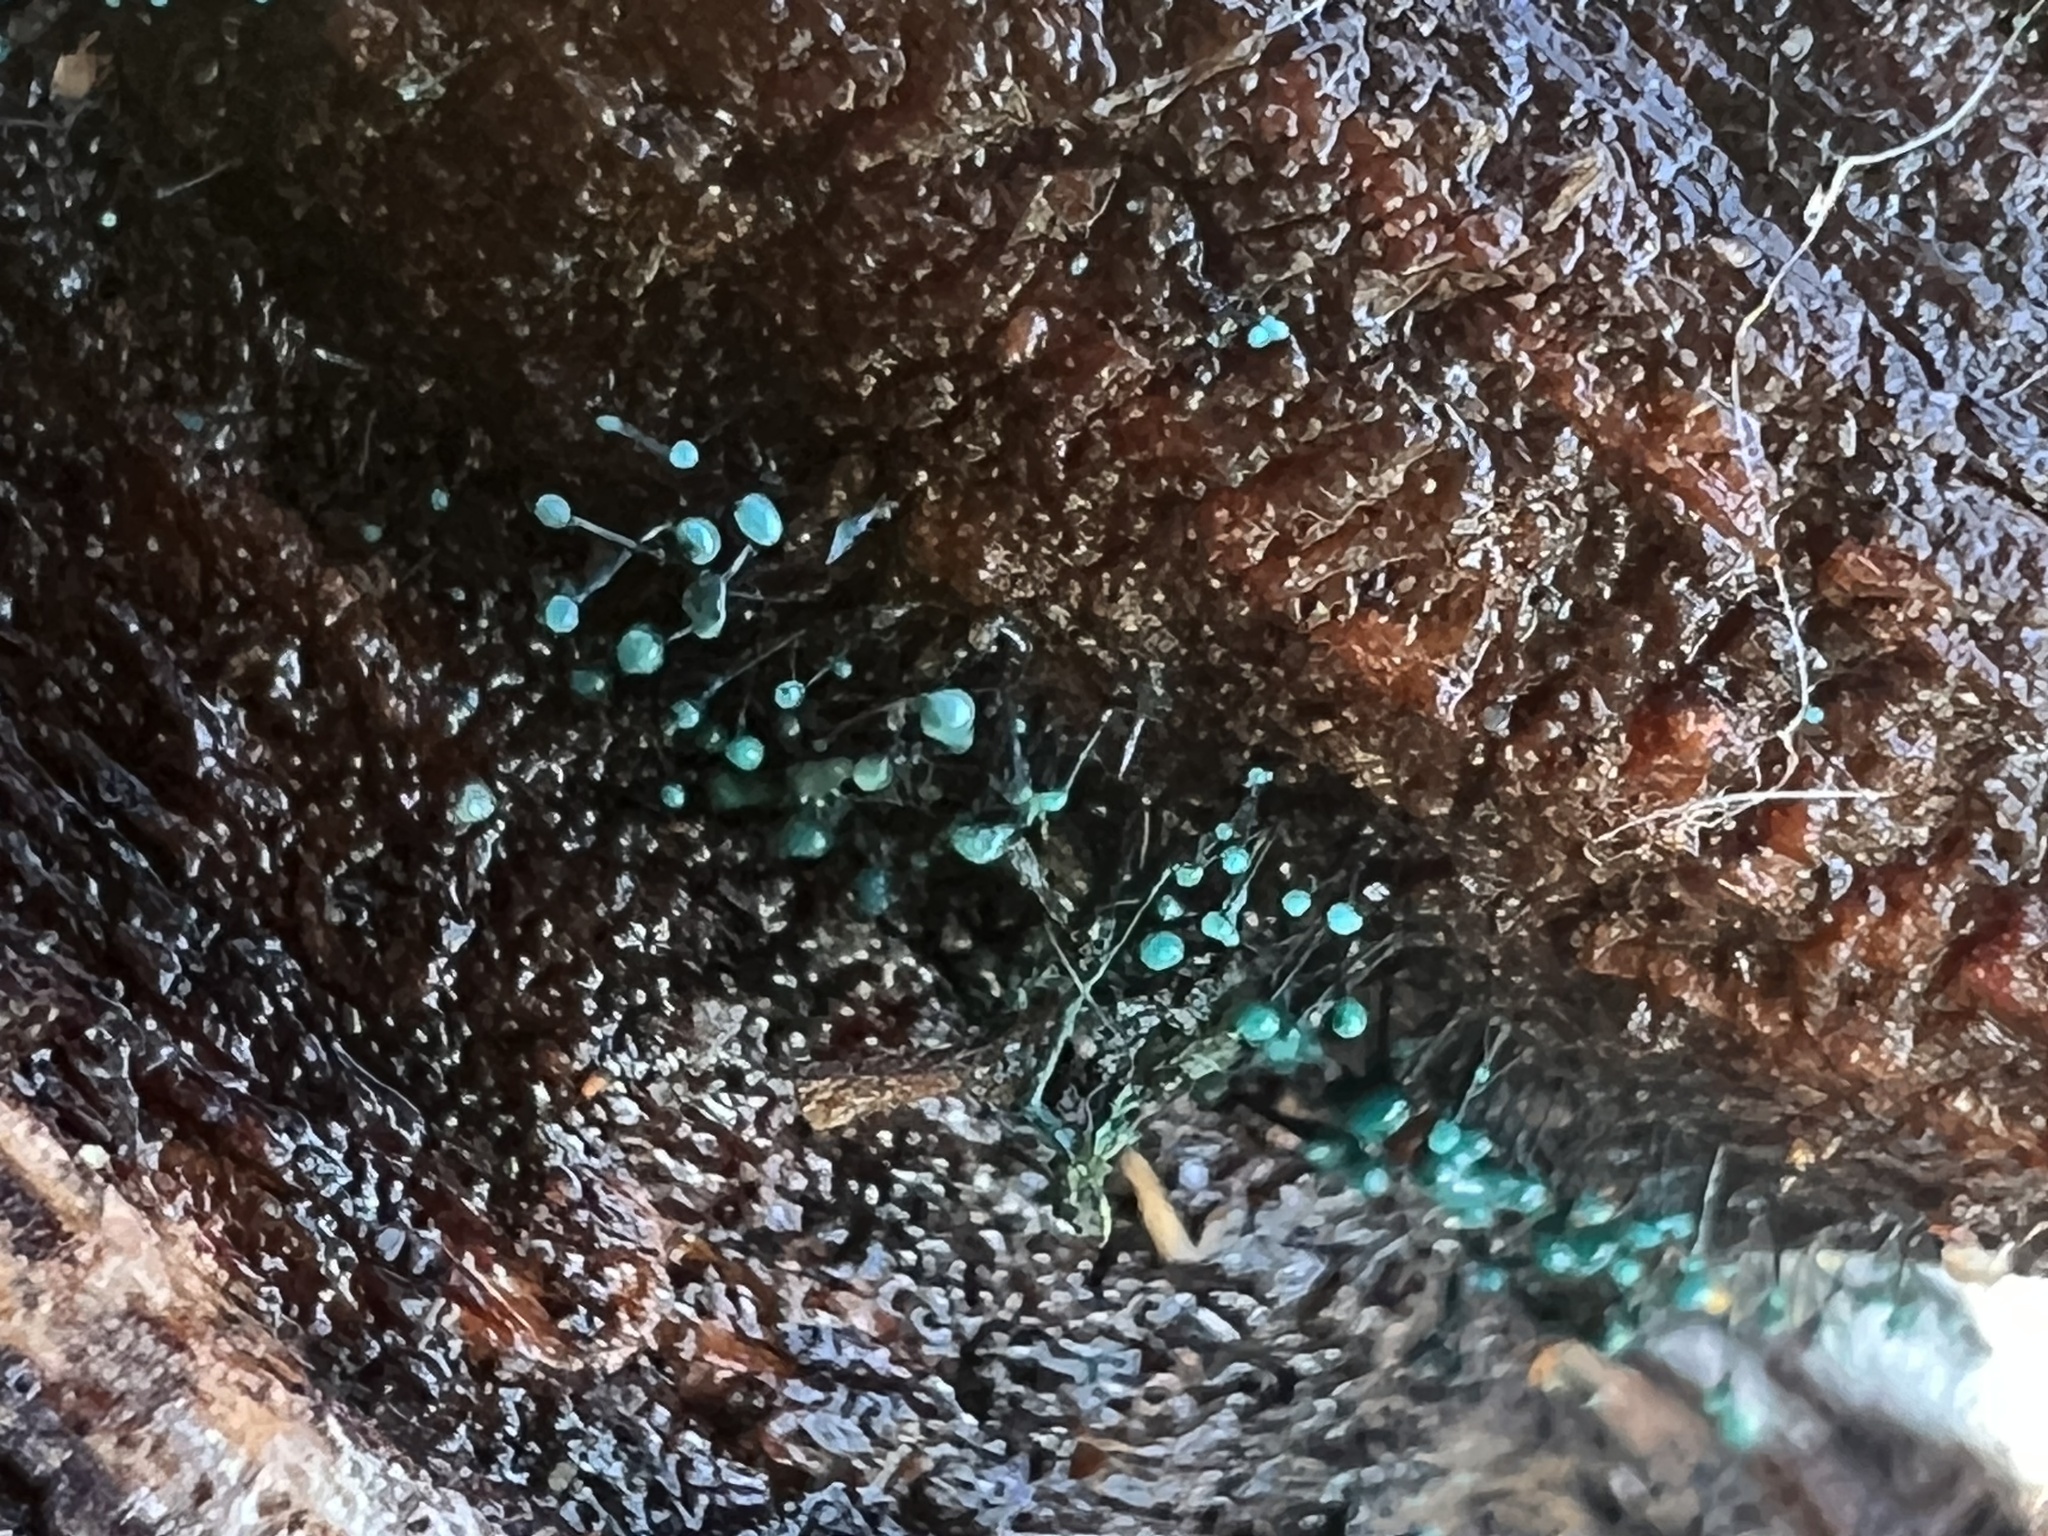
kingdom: Fungi
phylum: Ascomycota
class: Leotiomycetes
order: Leotiales
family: Tympanidaceae
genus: Dendrostilbella
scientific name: Dendrostilbella smaragdina
